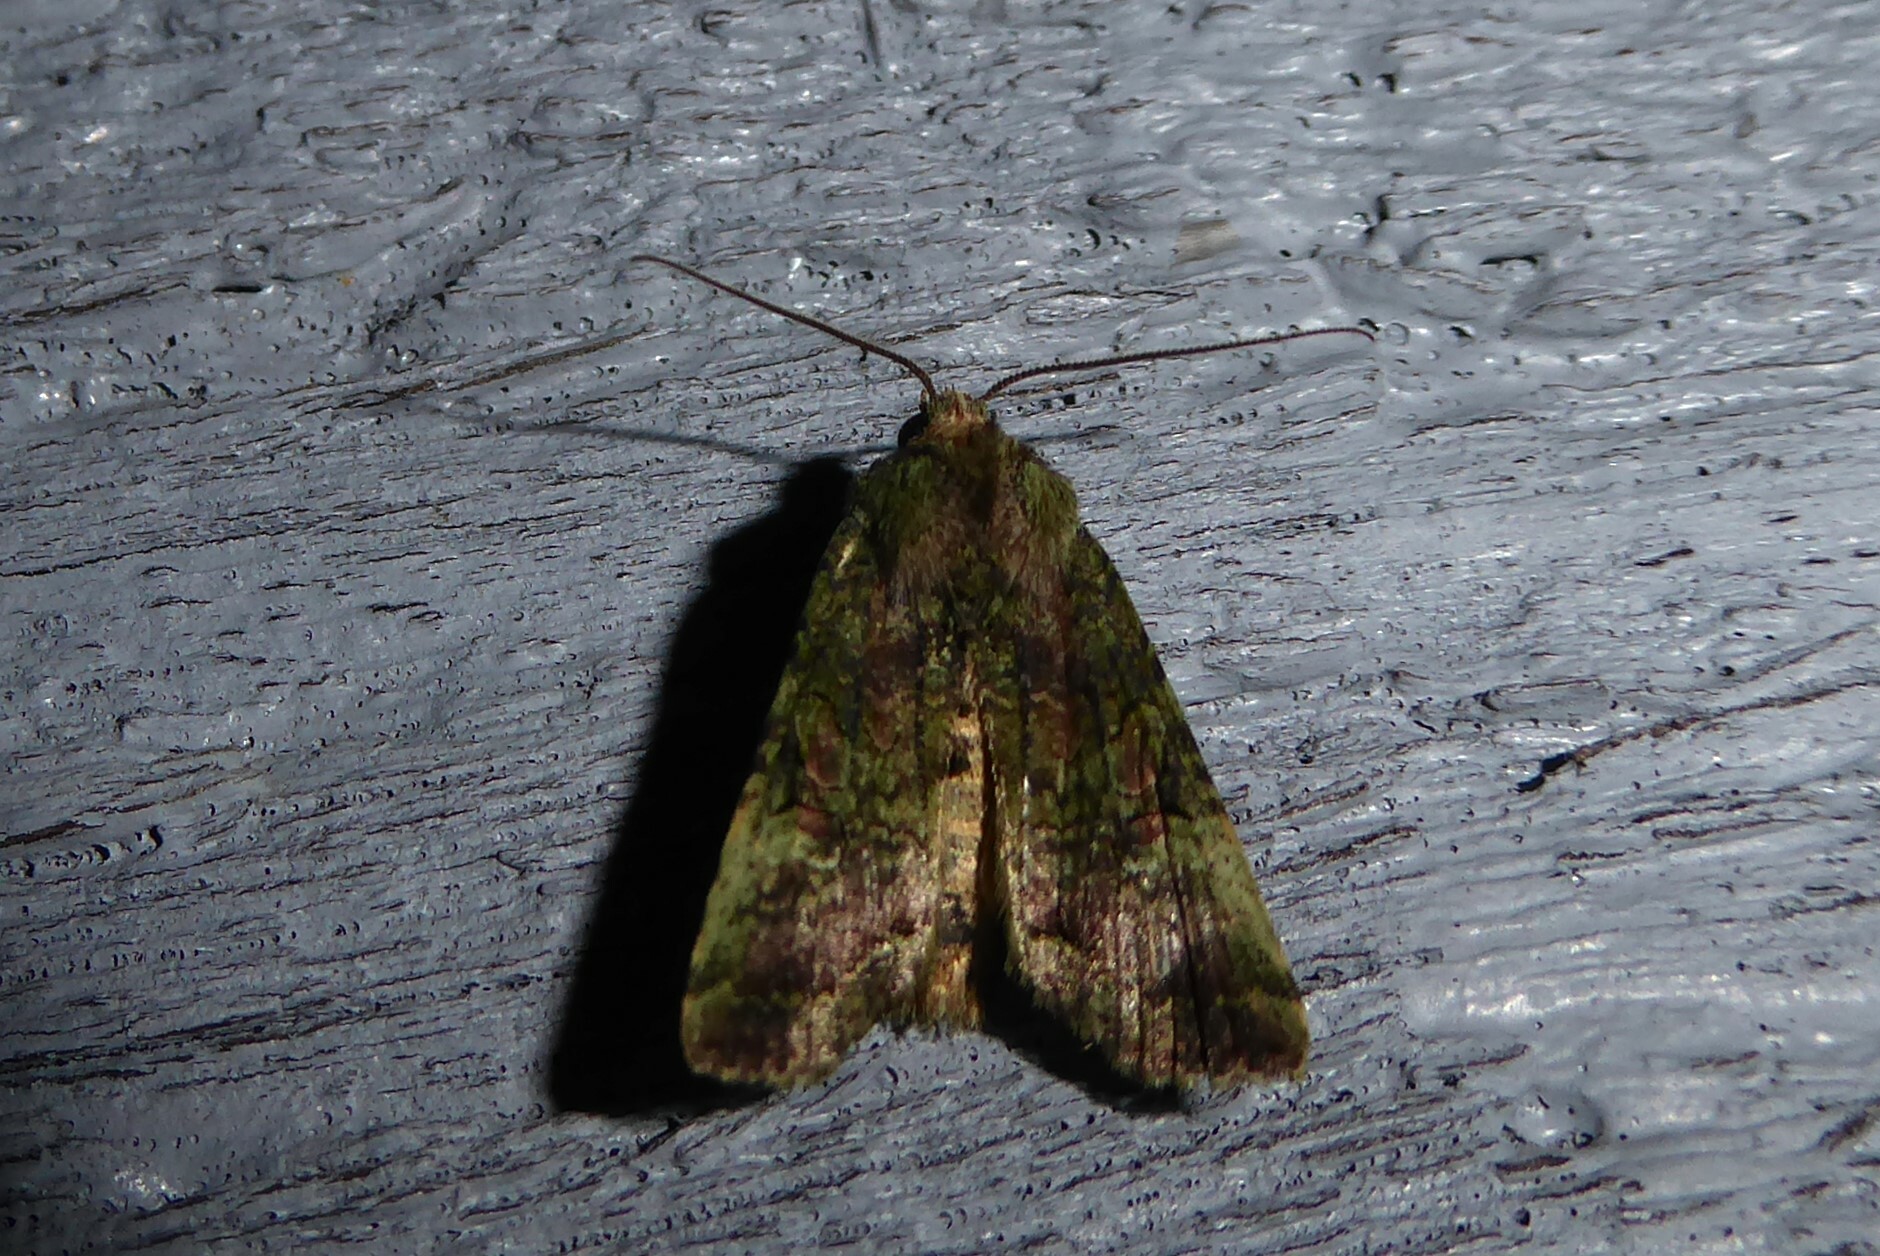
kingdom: Animalia
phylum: Arthropoda
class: Insecta
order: Lepidoptera
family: Noctuidae
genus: Meterana
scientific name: Meterana levis
